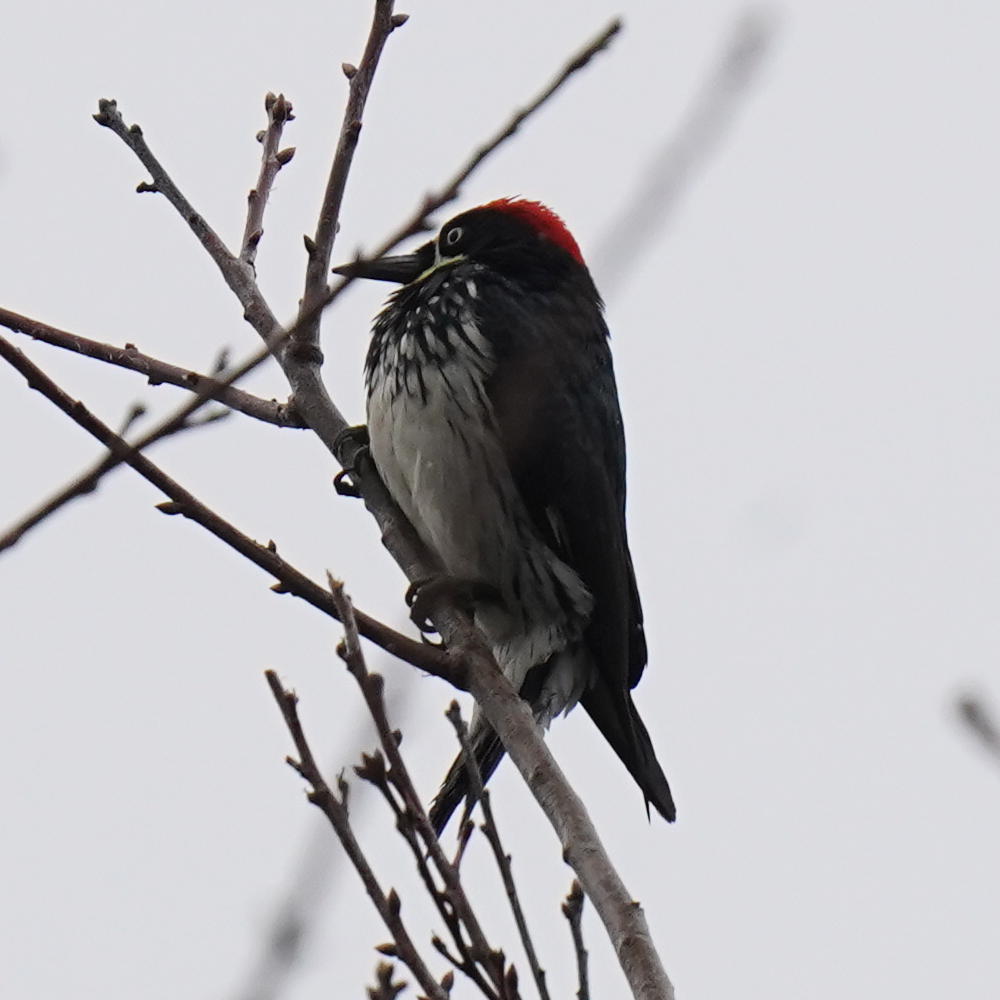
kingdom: Animalia
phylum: Chordata
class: Aves
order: Piciformes
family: Picidae
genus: Melanerpes
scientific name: Melanerpes formicivorus
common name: Acorn woodpecker
